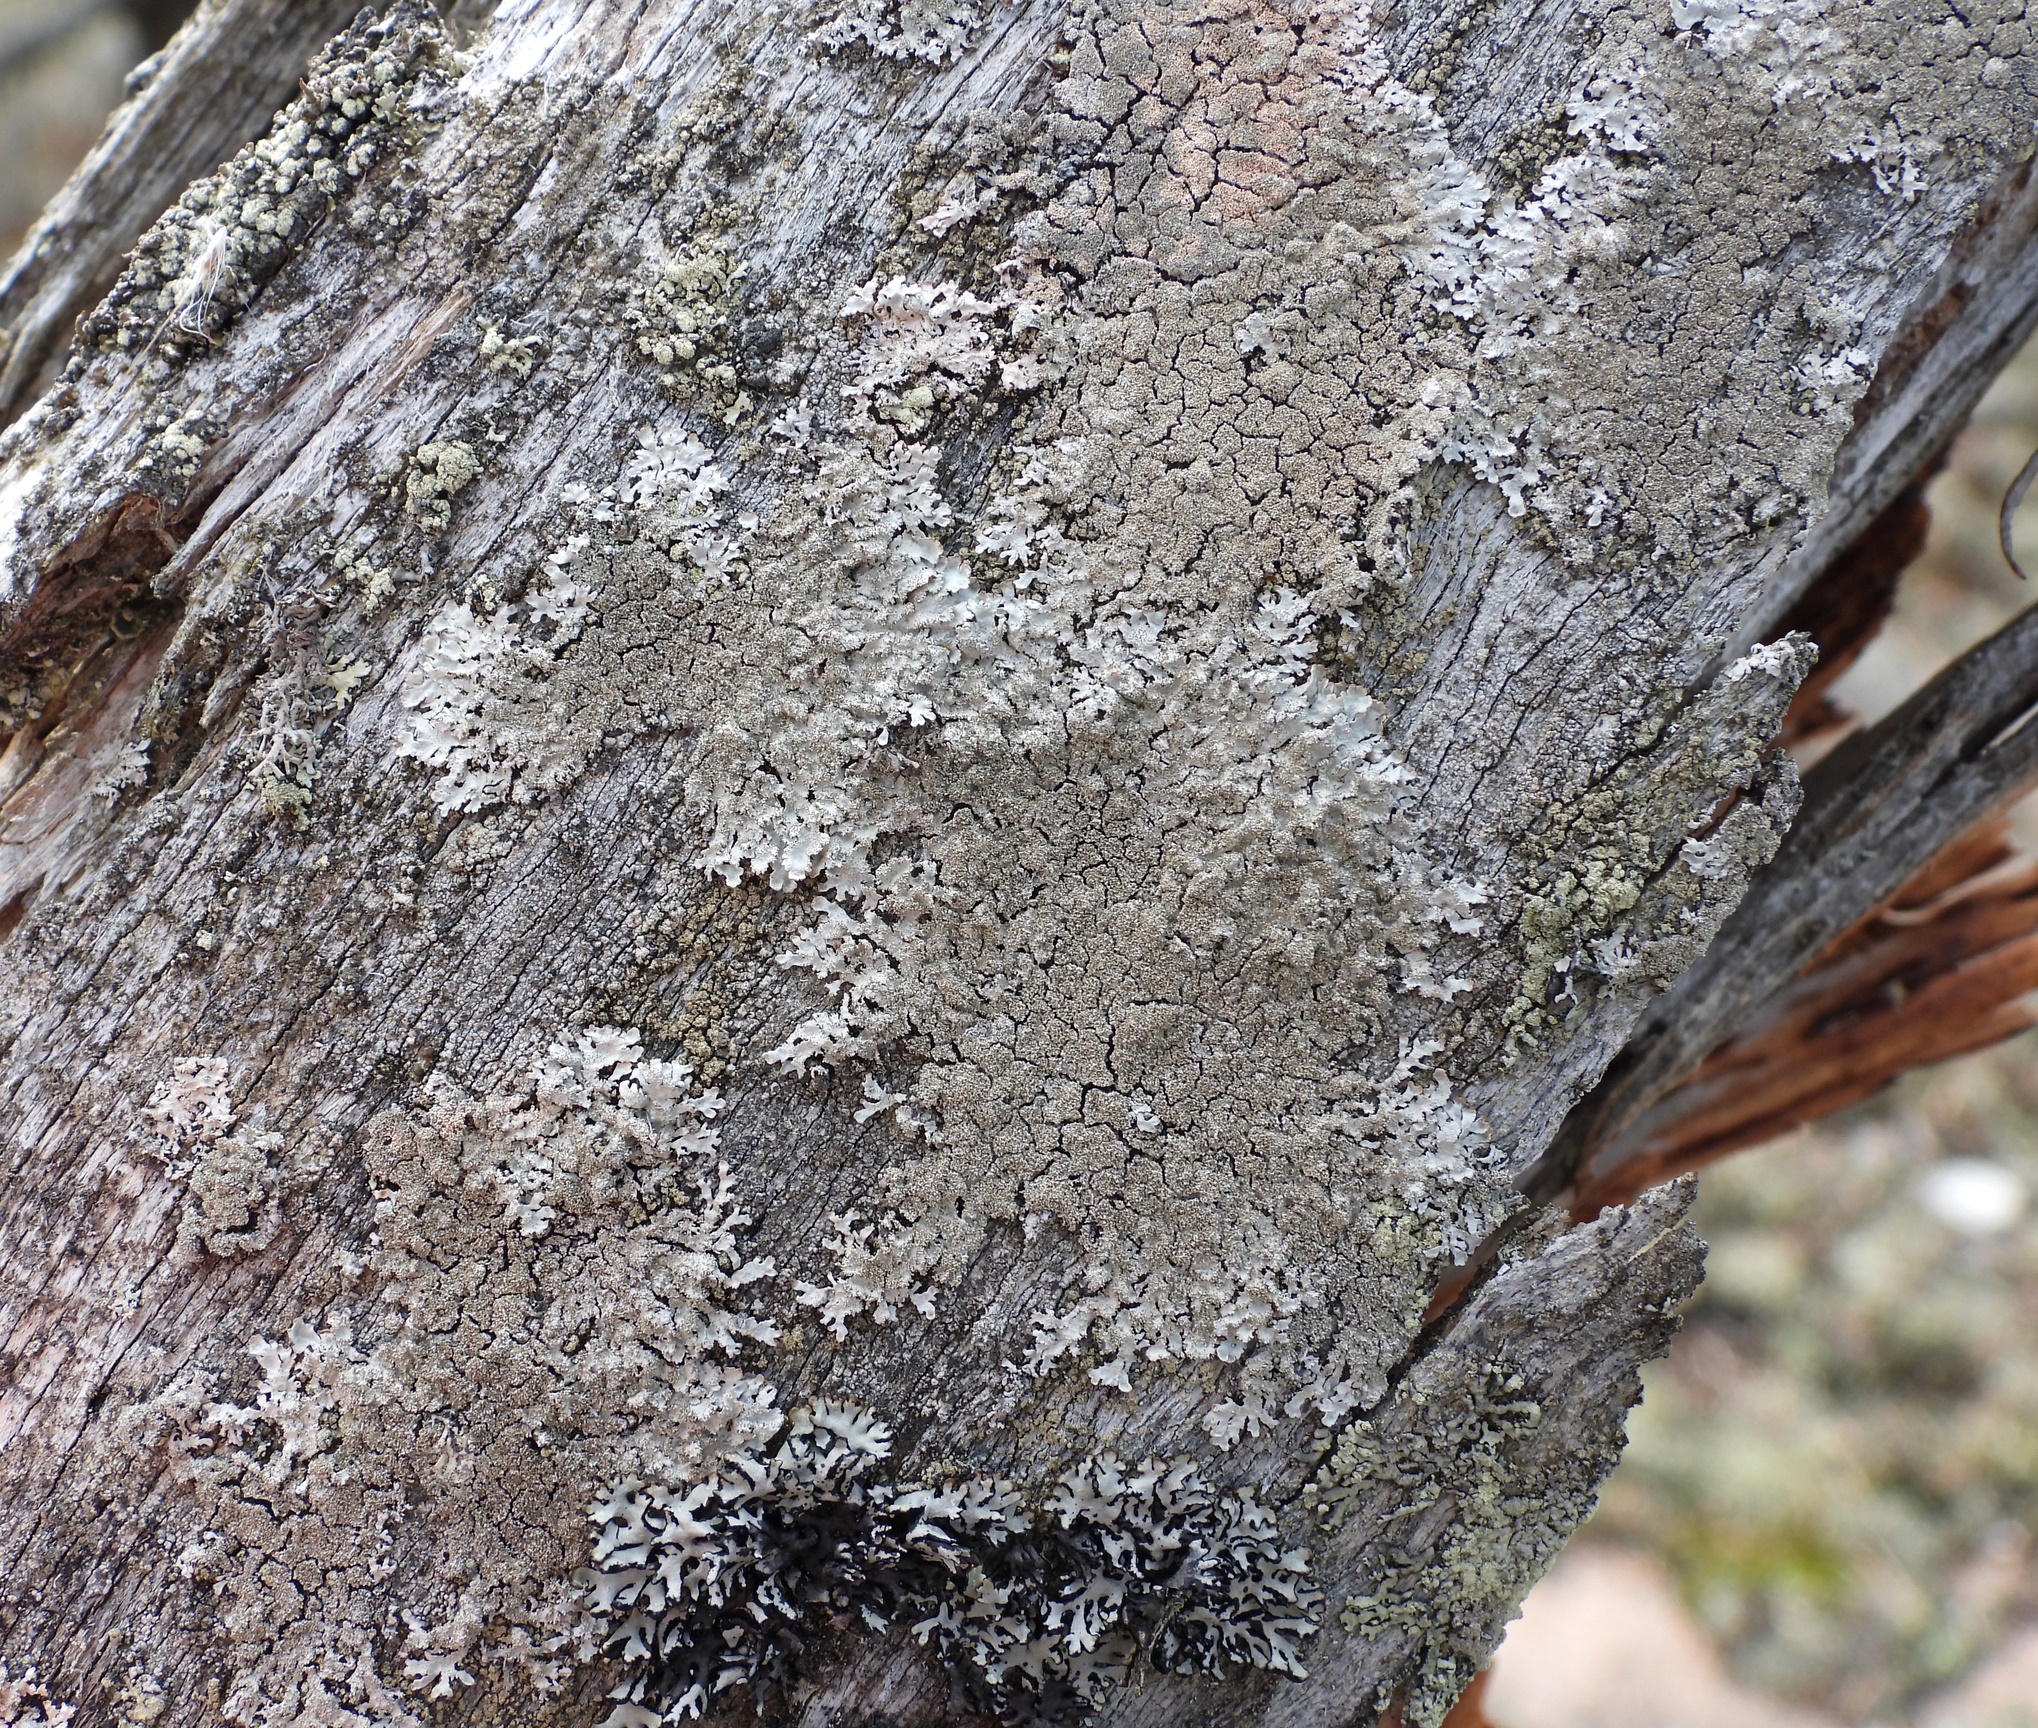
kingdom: Fungi
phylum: Ascomycota
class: Lecanoromycetes
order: Lecanorales
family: Parmeliaceae
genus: Imshaugia
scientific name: Imshaugia aleurites
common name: Salted starburst lichen
